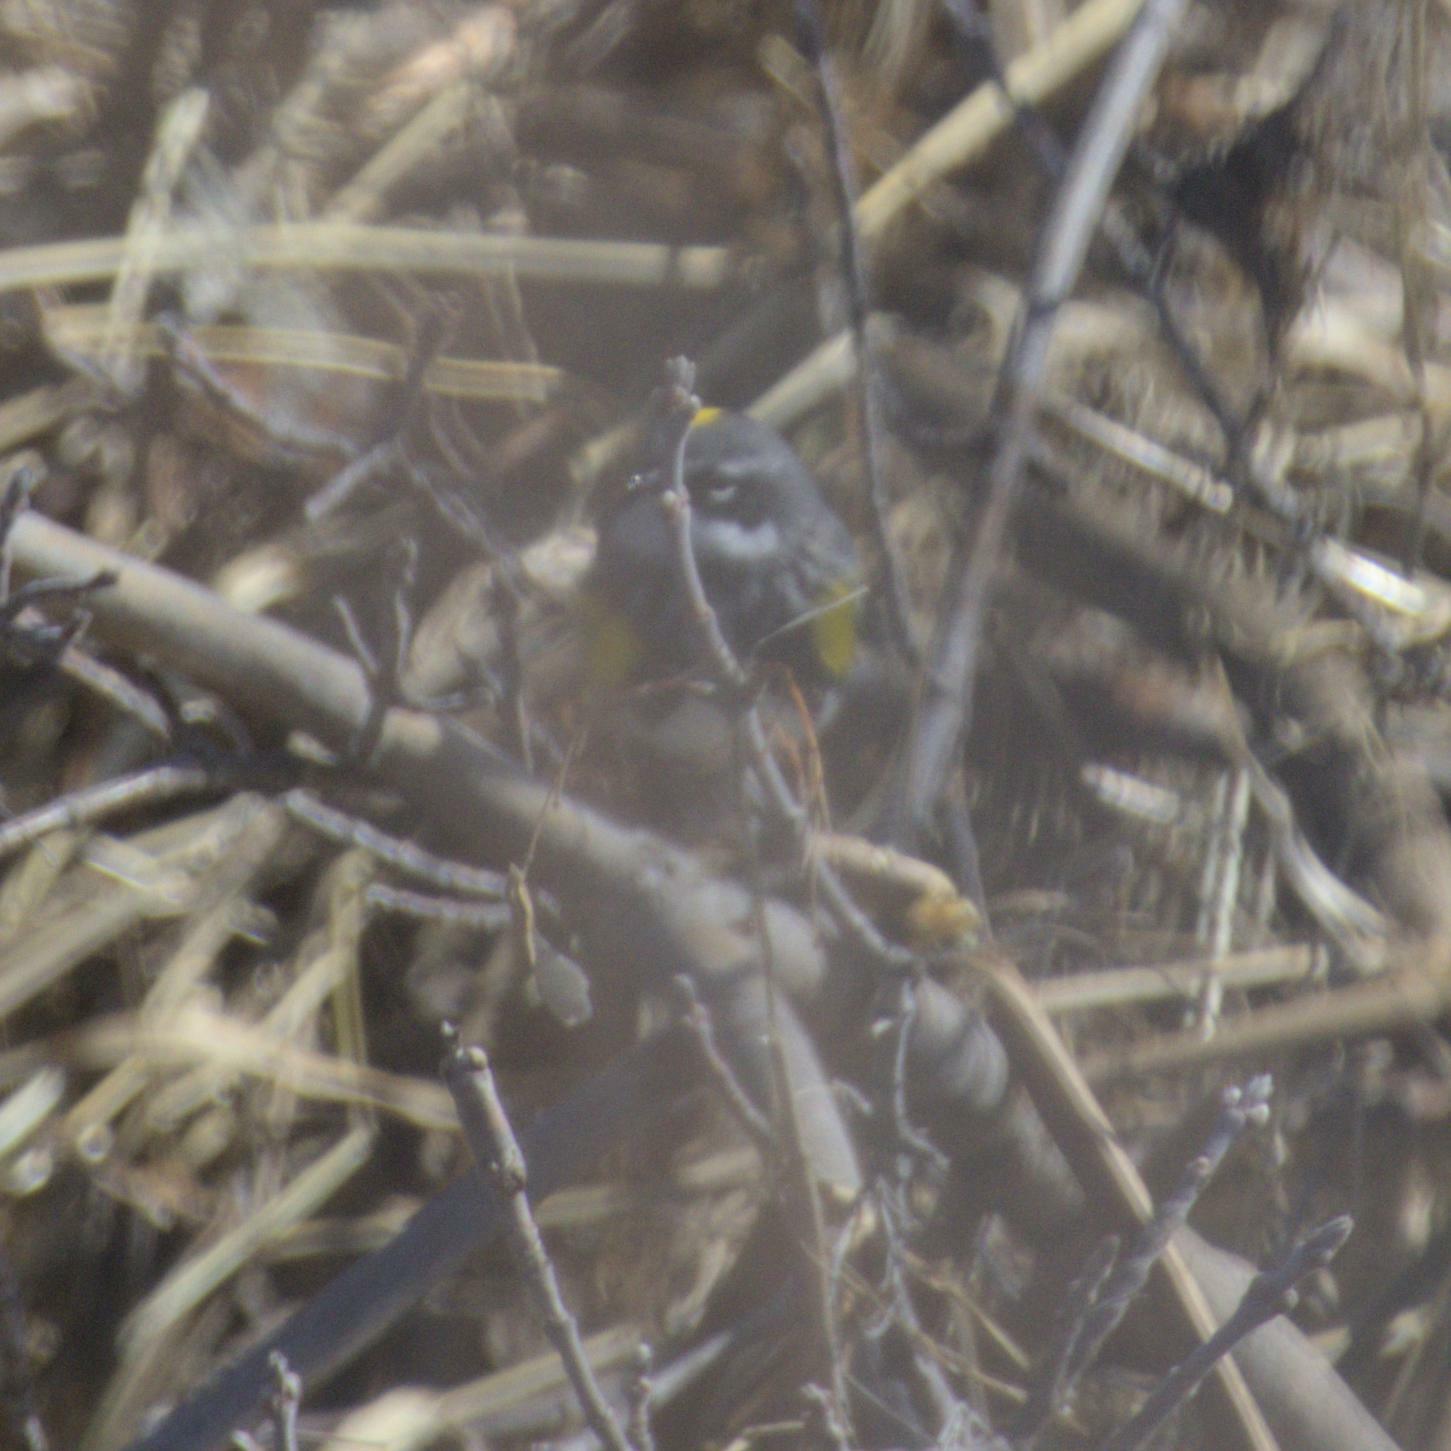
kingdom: Animalia
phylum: Chordata
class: Aves
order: Passeriformes
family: Parulidae
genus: Setophaga
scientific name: Setophaga coronata
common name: Myrtle warbler
